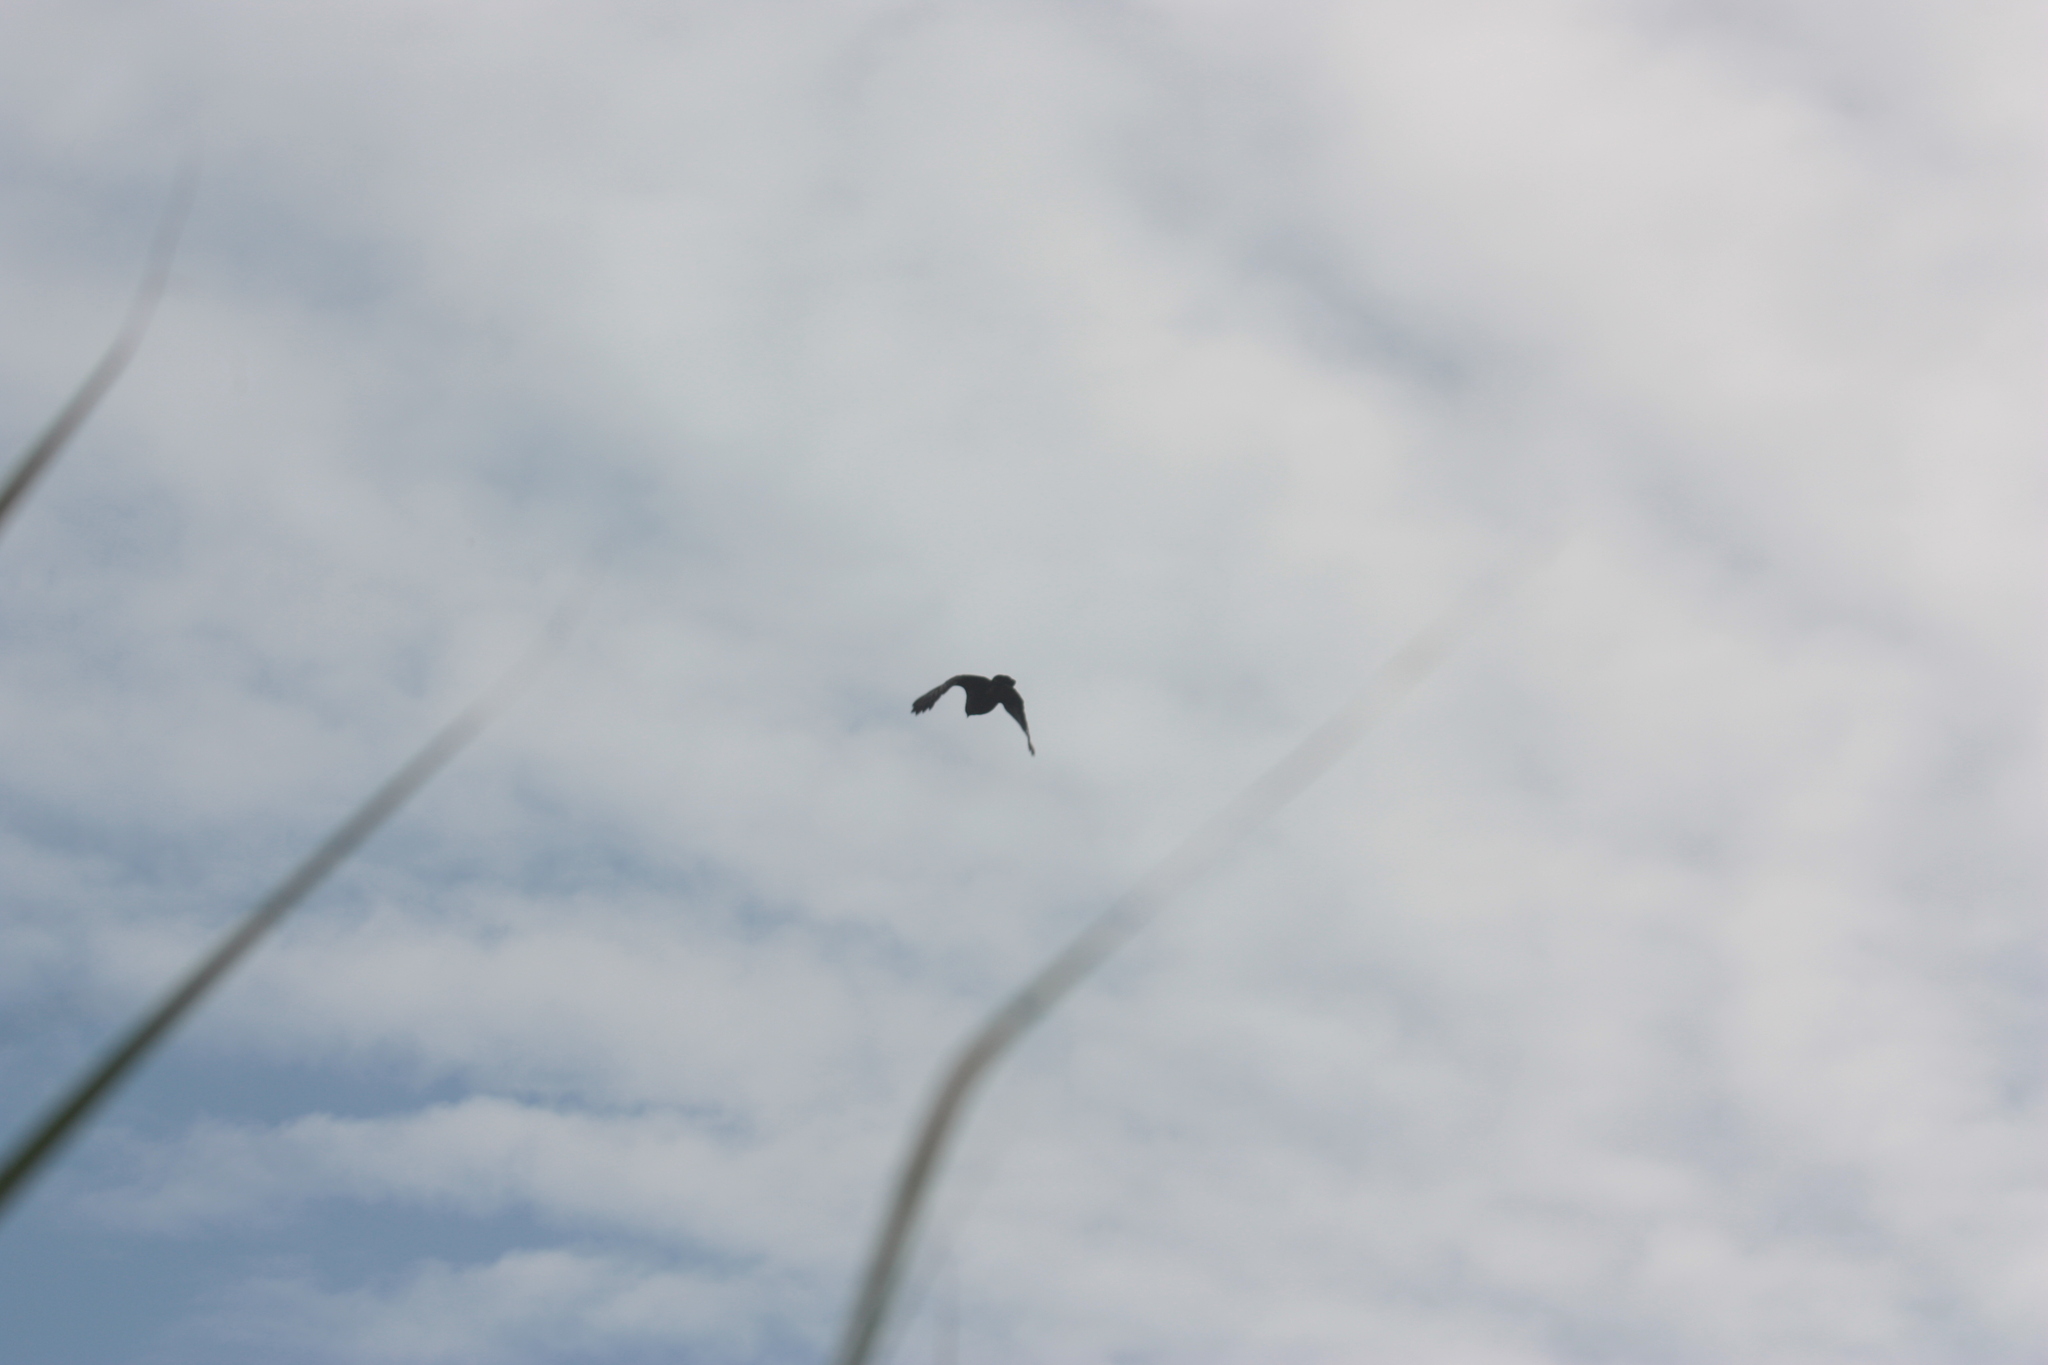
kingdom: Animalia
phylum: Chordata
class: Aves
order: Accipitriformes
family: Accipitridae
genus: Spilornis
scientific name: Spilornis cheela
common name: Crested serpent eagle
